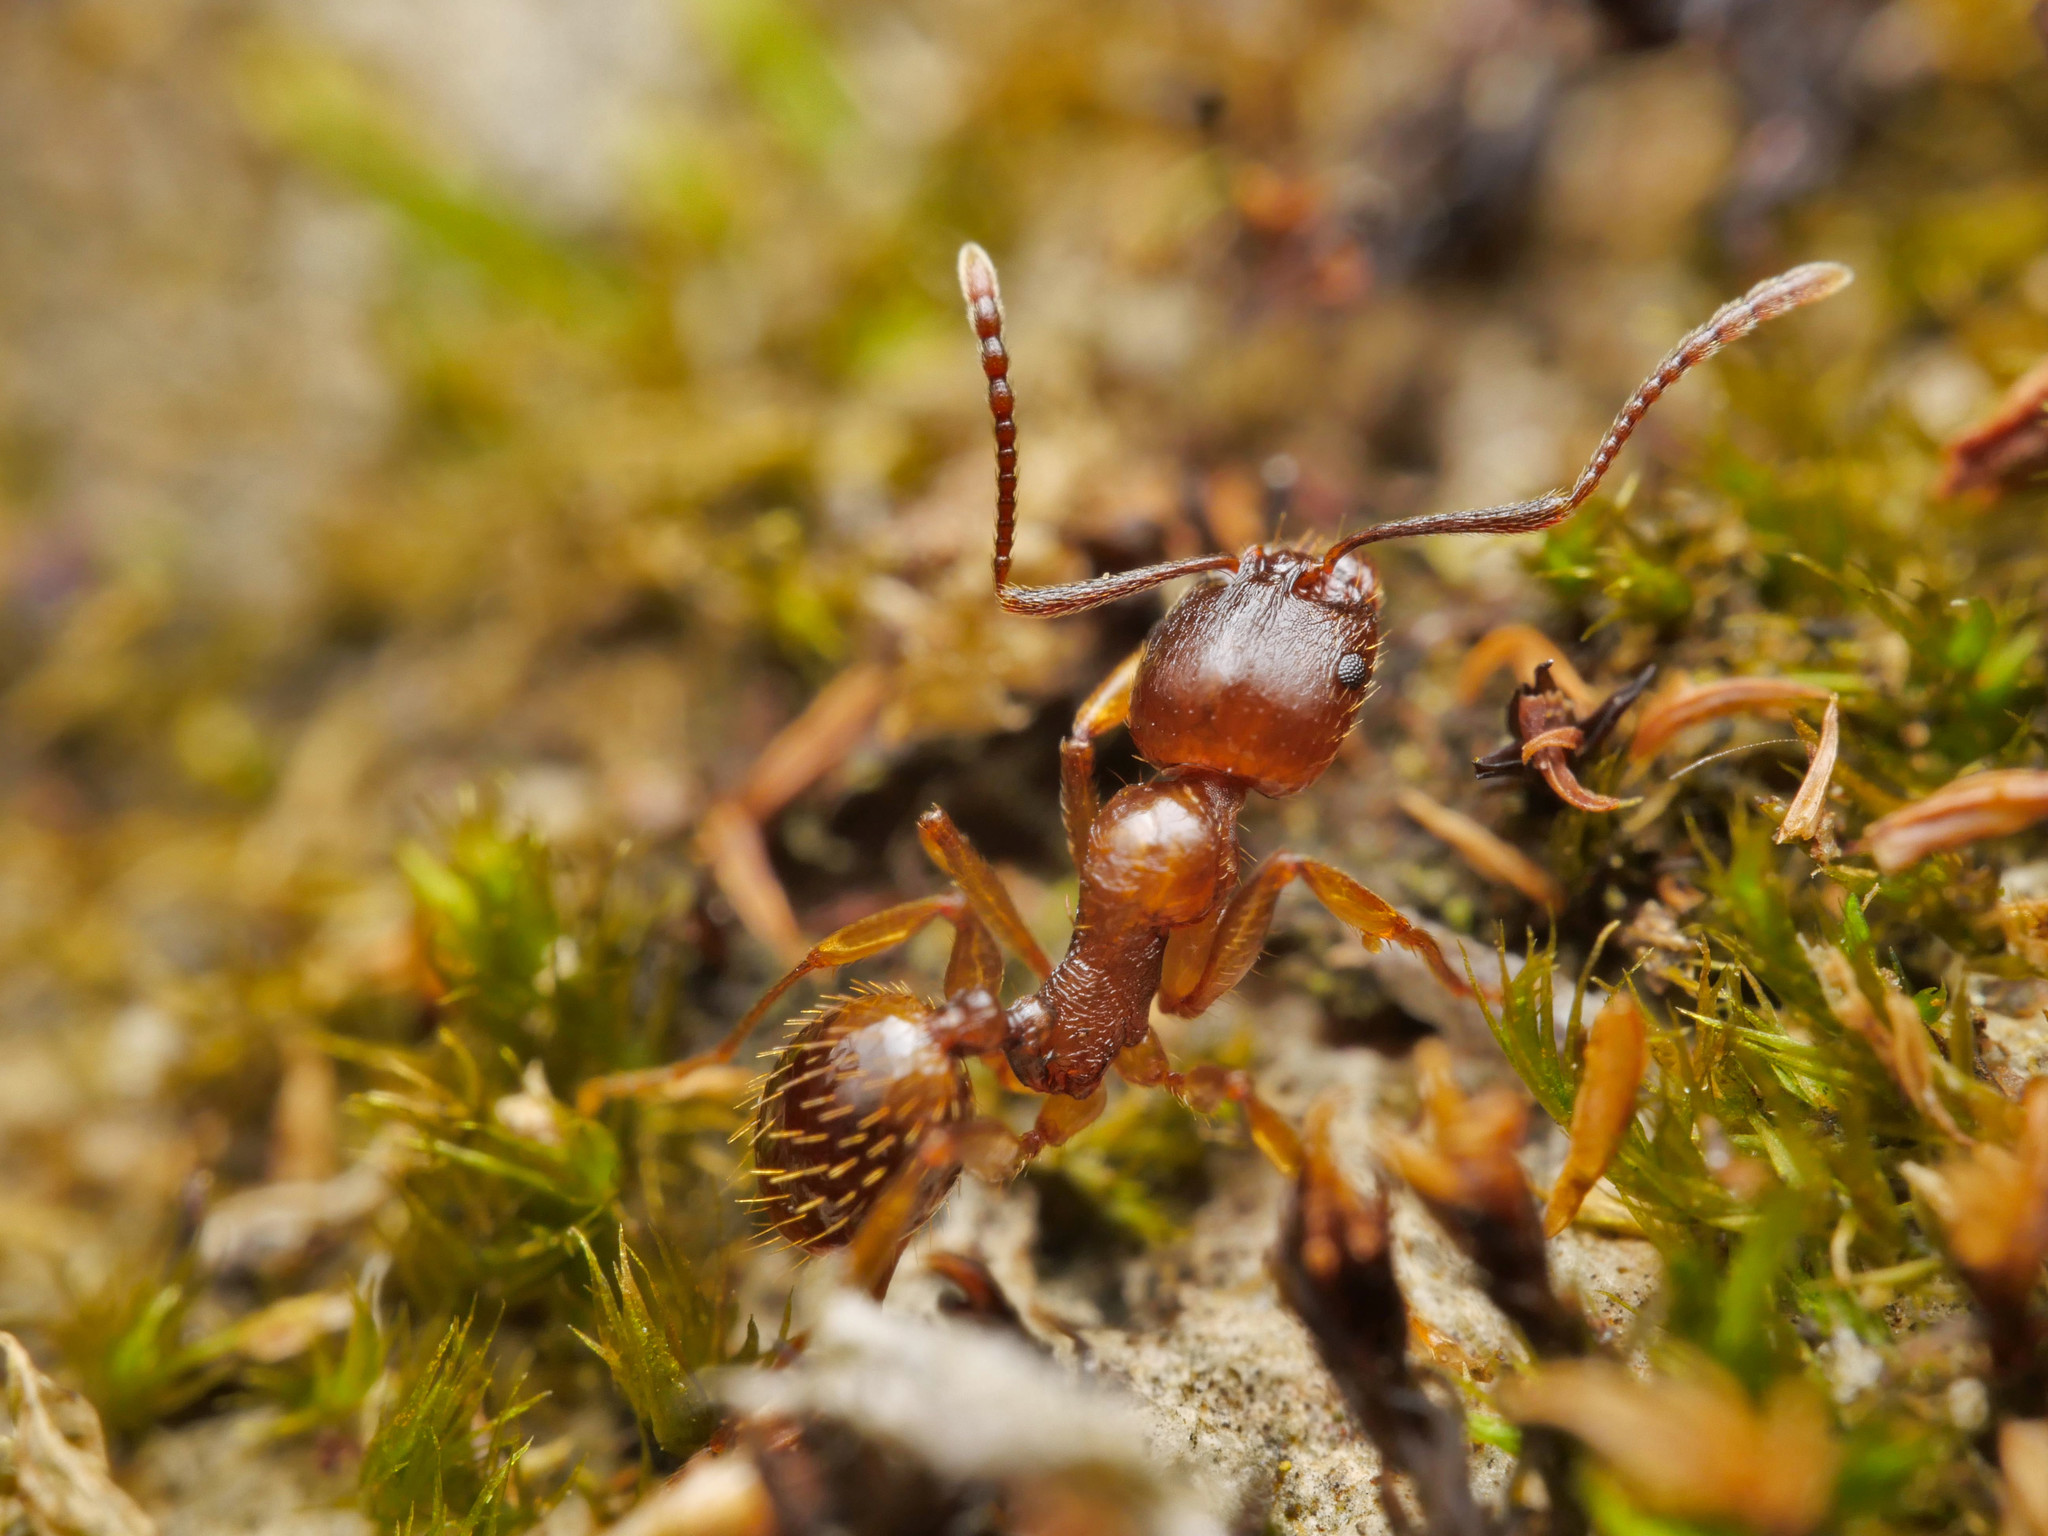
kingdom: Animalia
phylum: Arthropoda
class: Insecta
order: Hymenoptera
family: Formicidae
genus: Aphaenogaster
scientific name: Aphaenogaster subterranea
